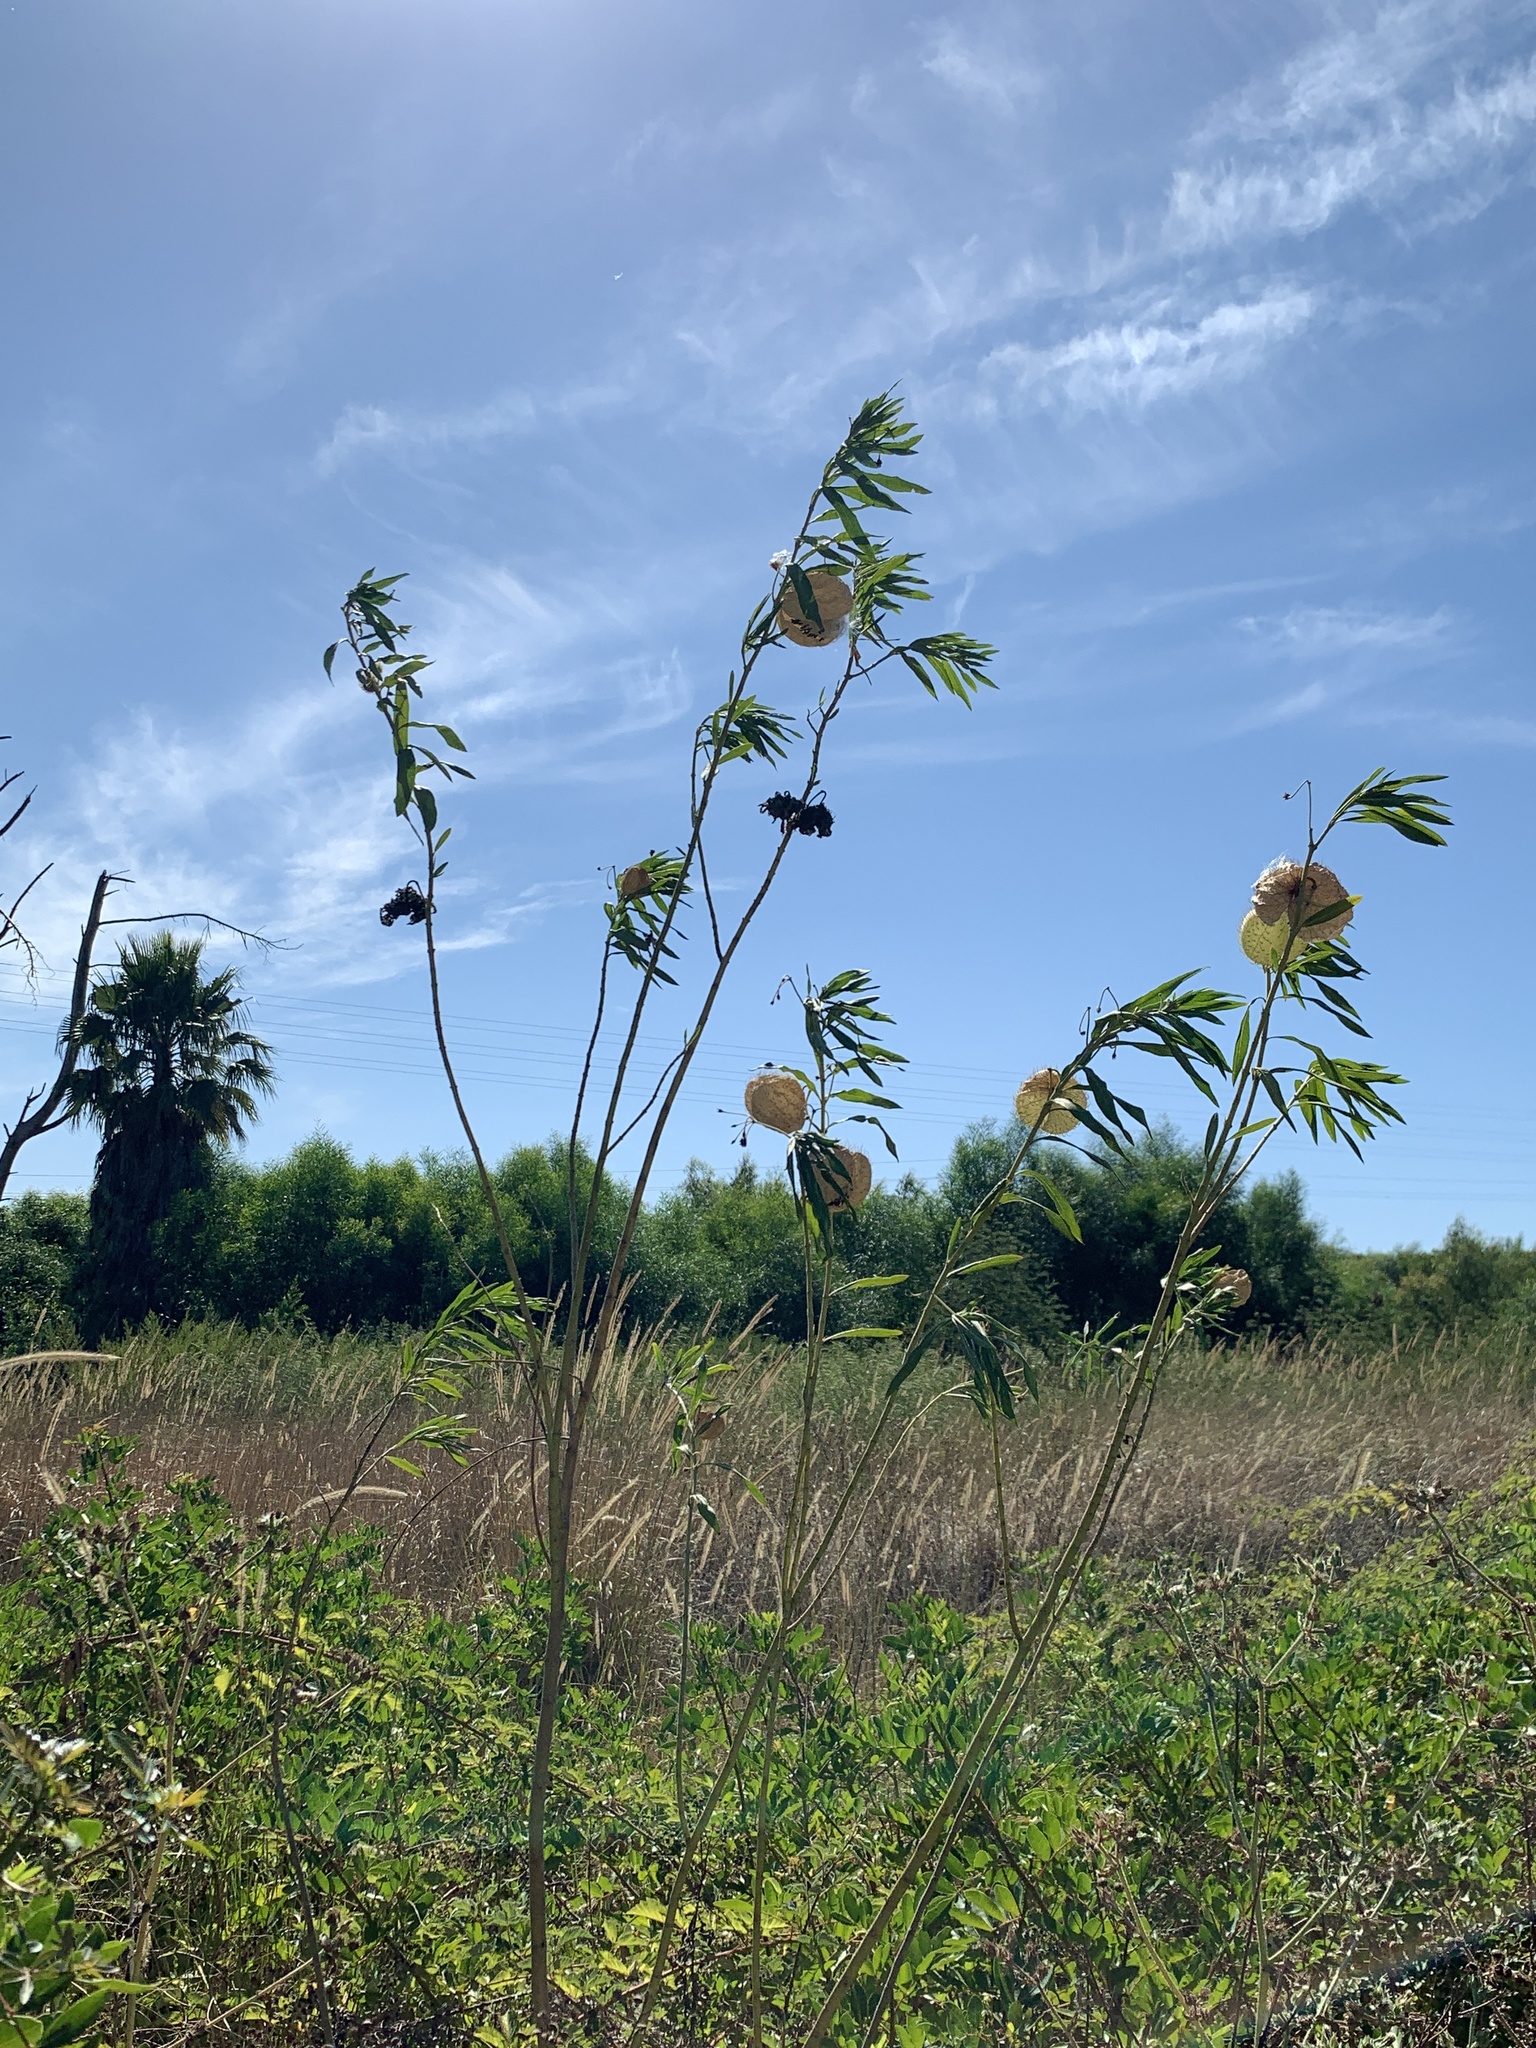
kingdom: Plantae
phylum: Tracheophyta
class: Magnoliopsida
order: Gentianales
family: Apocynaceae
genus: Gomphocarpus
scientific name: Gomphocarpus physocarpus
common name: Balloon cotton bush
